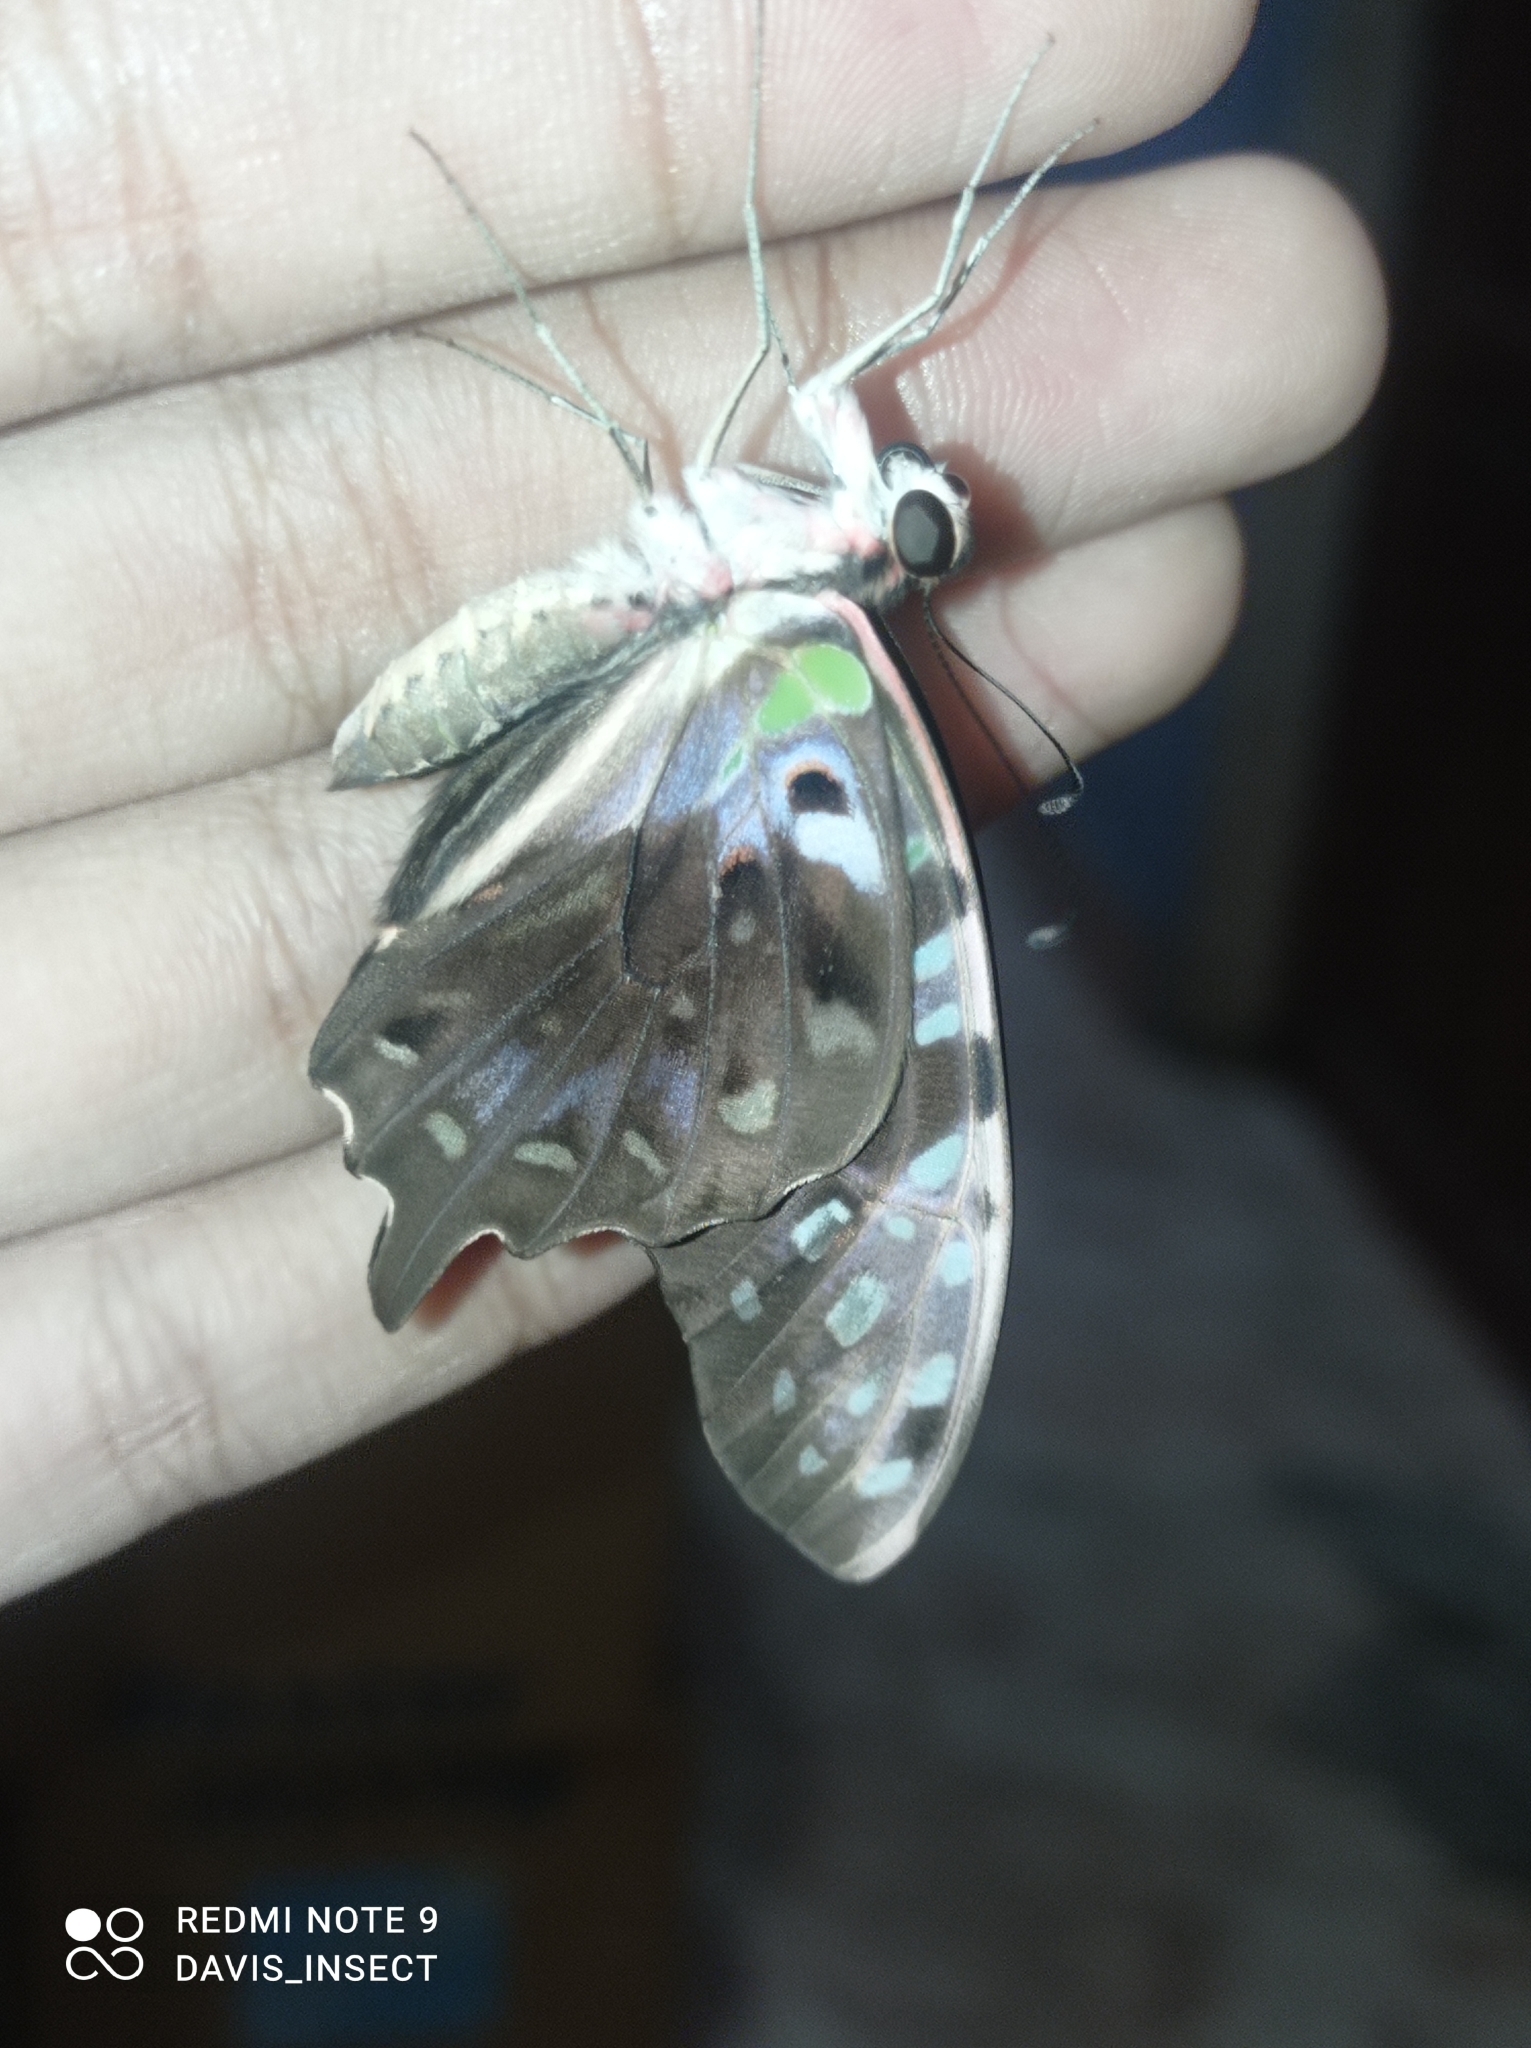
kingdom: Animalia
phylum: Arthropoda
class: Insecta
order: Lepidoptera
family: Papilionidae
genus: Graphium
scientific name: Graphium agamemnon
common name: Tailed jay
